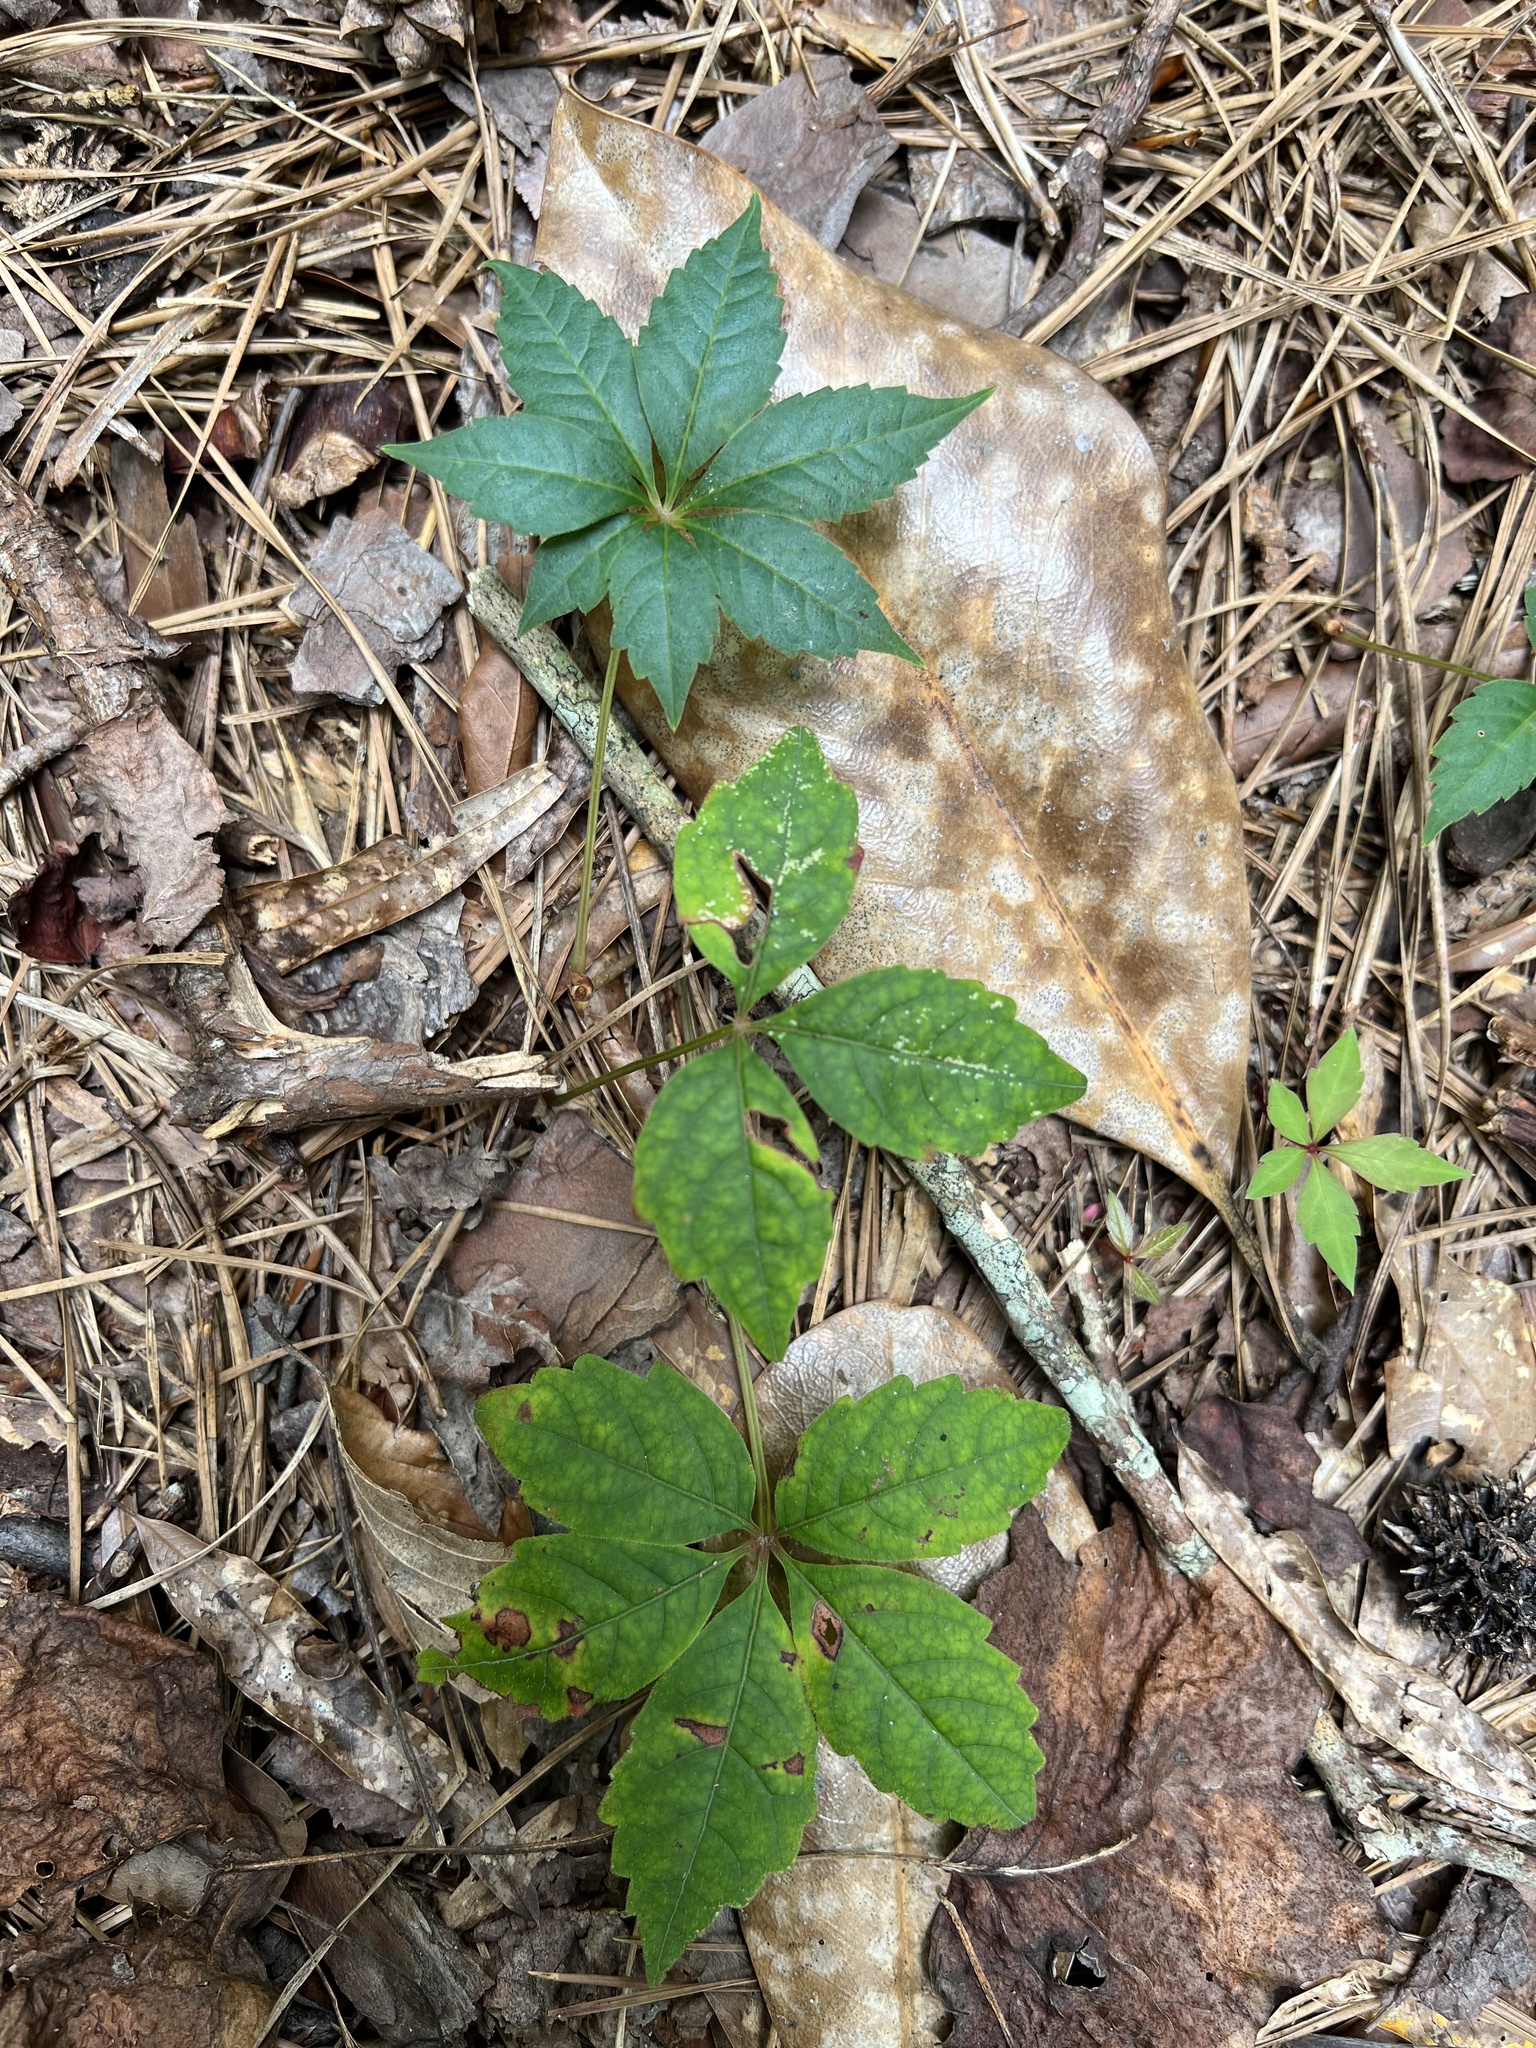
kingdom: Plantae
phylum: Tracheophyta
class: Magnoliopsida
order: Vitales
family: Vitaceae
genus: Parthenocissus
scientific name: Parthenocissus quinquefolia
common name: Virginia-creeper
